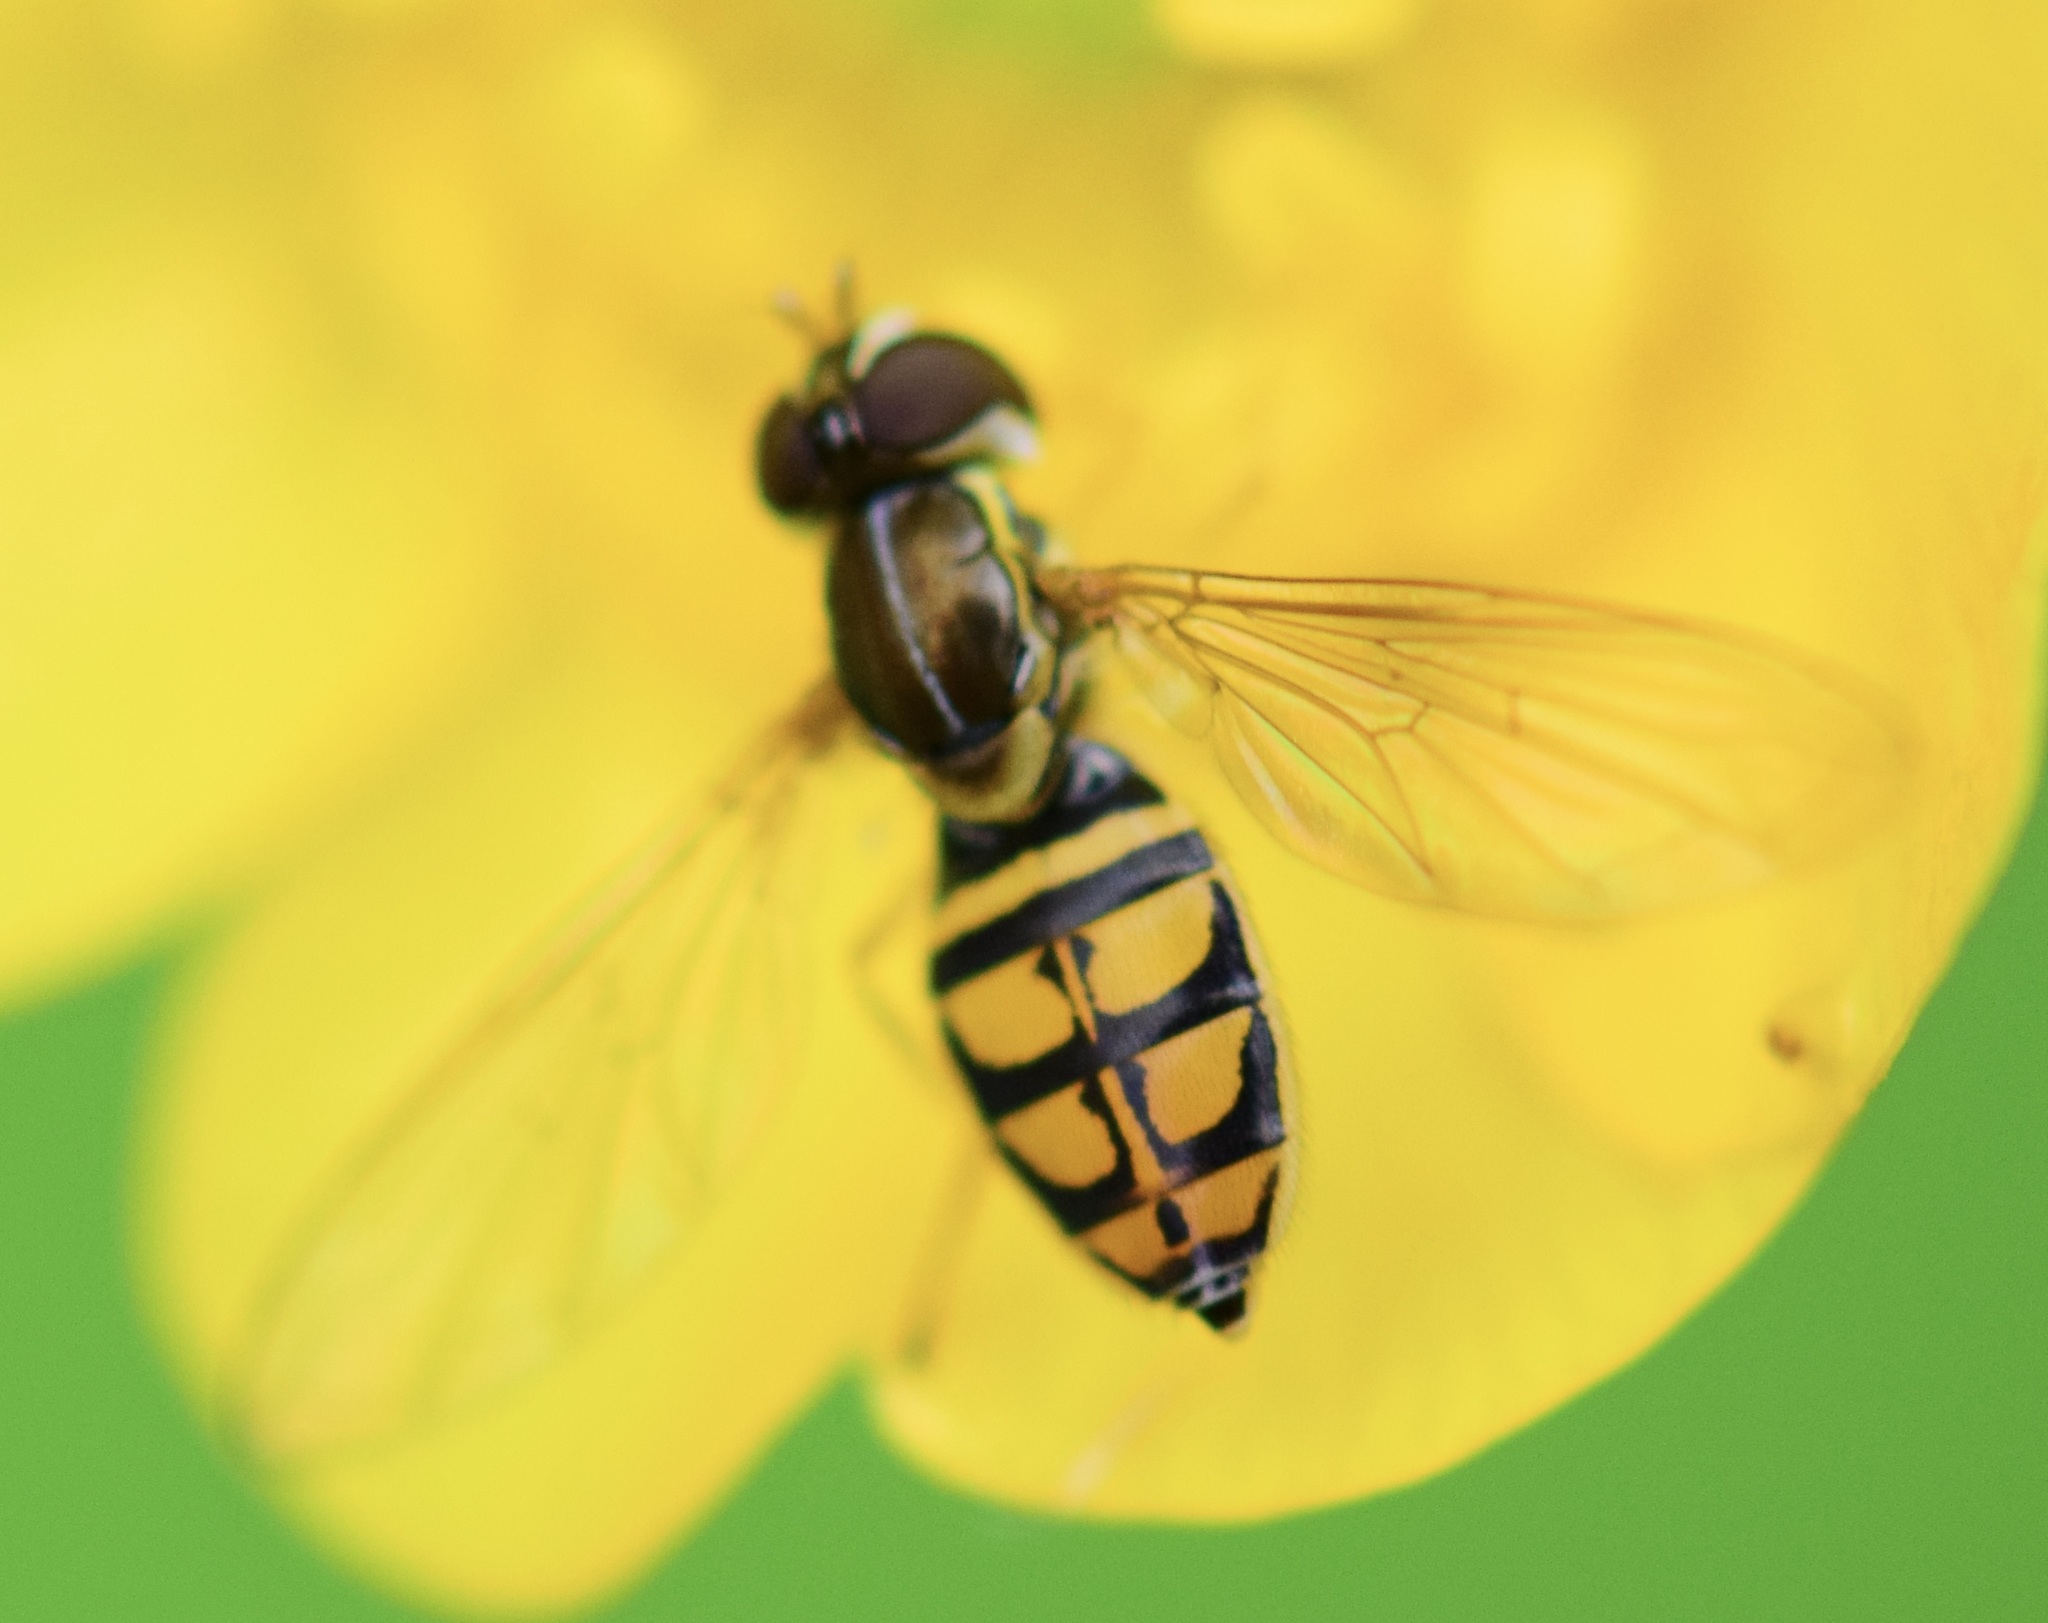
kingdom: Animalia
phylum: Arthropoda
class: Insecta
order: Diptera
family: Syrphidae
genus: Toxomerus
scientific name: Toxomerus marginatus
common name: Syrphid fly
